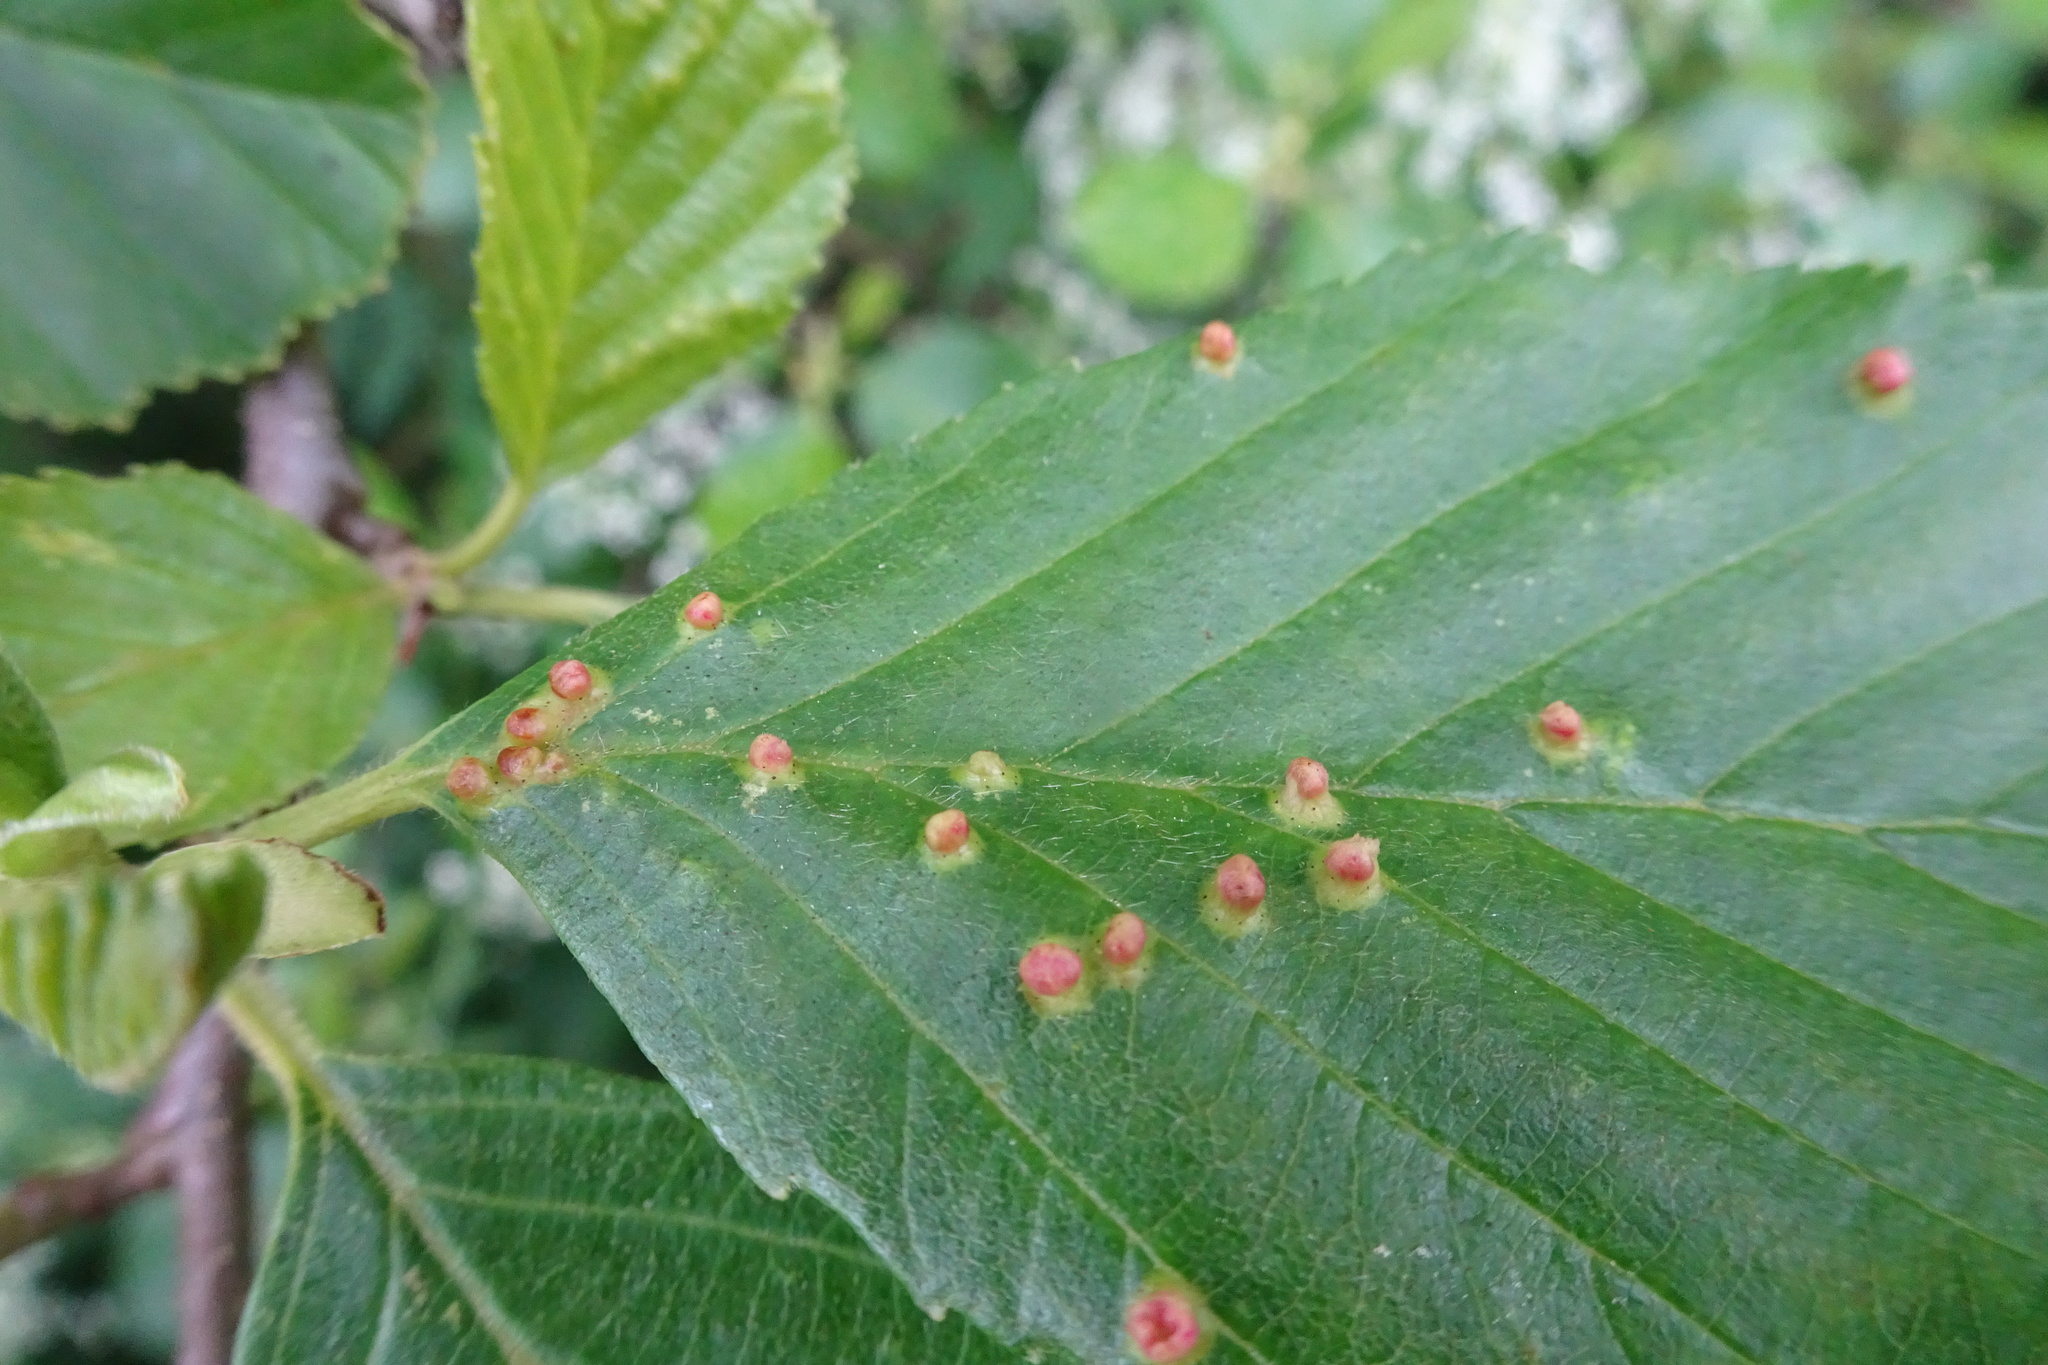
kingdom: Animalia
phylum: Arthropoda
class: Arachnida
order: Trombidiformes
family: Eriophyidae
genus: Eriophyes
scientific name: Eriophyes laevis
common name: Alder leaf gall mite
